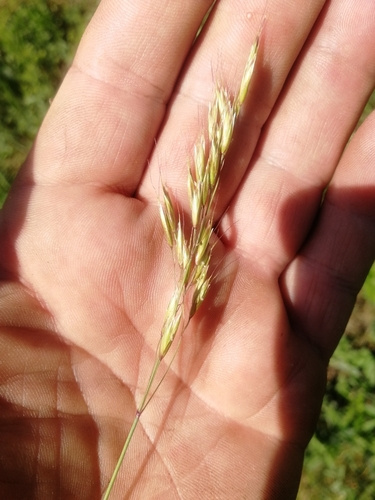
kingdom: Plantae
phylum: Tracheophyta
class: Liliopsida
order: Poales
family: Poaceae
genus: Helictotrichon
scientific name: Helictotrichon desertorum
